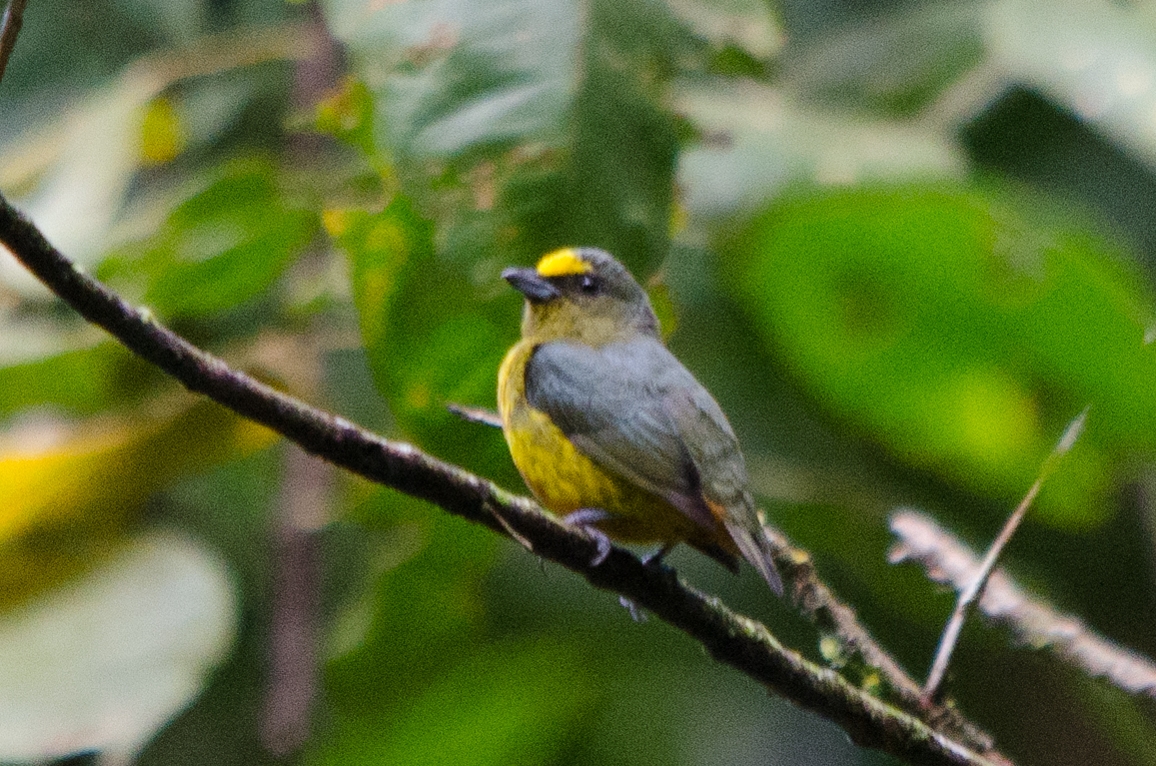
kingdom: Animalia
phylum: Chordata
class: Aves
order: Passeriformes
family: Fringillidae
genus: Euphonia
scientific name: Euphonia gouldi
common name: Olive-backed euphonia
